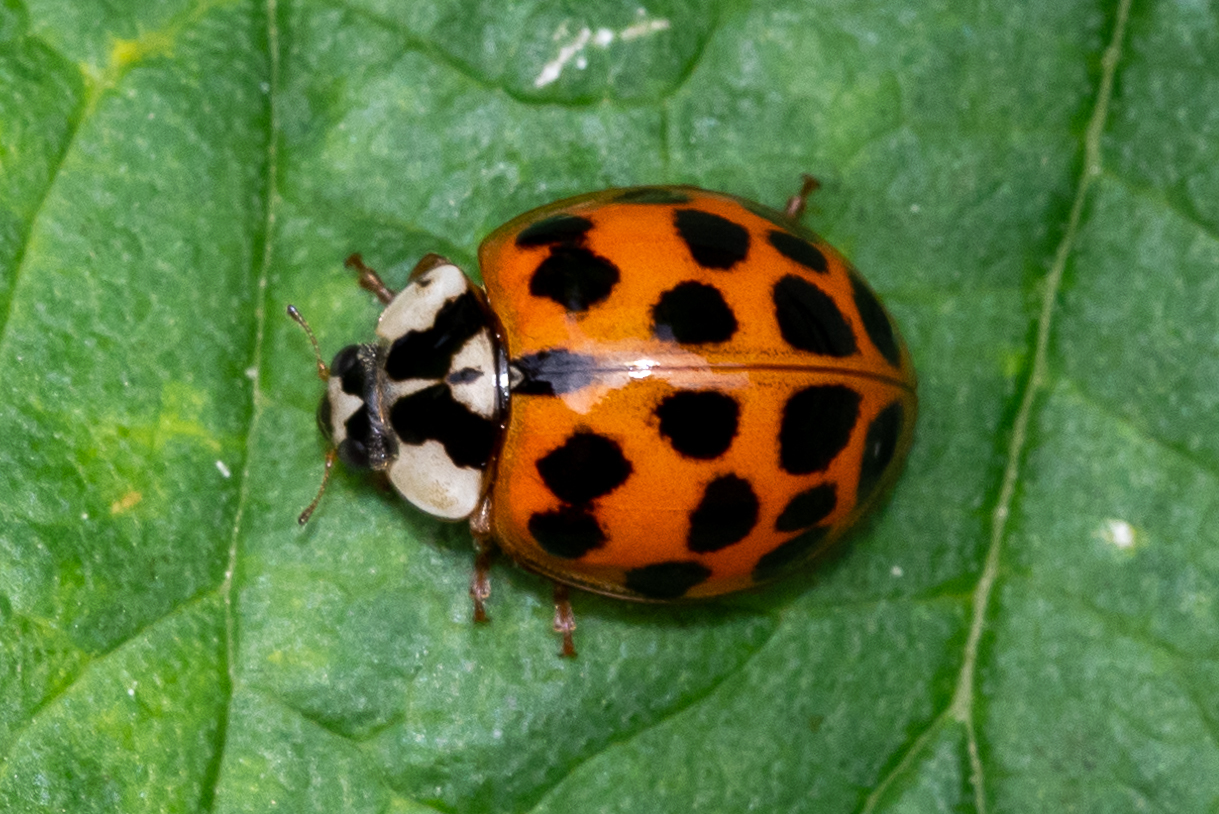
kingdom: Animalia
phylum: Arthropoda
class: Insecta
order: Coleoptera
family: Coccinellidae
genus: Harmonia
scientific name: Harmonia axyridis
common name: Harlequin ladybird
